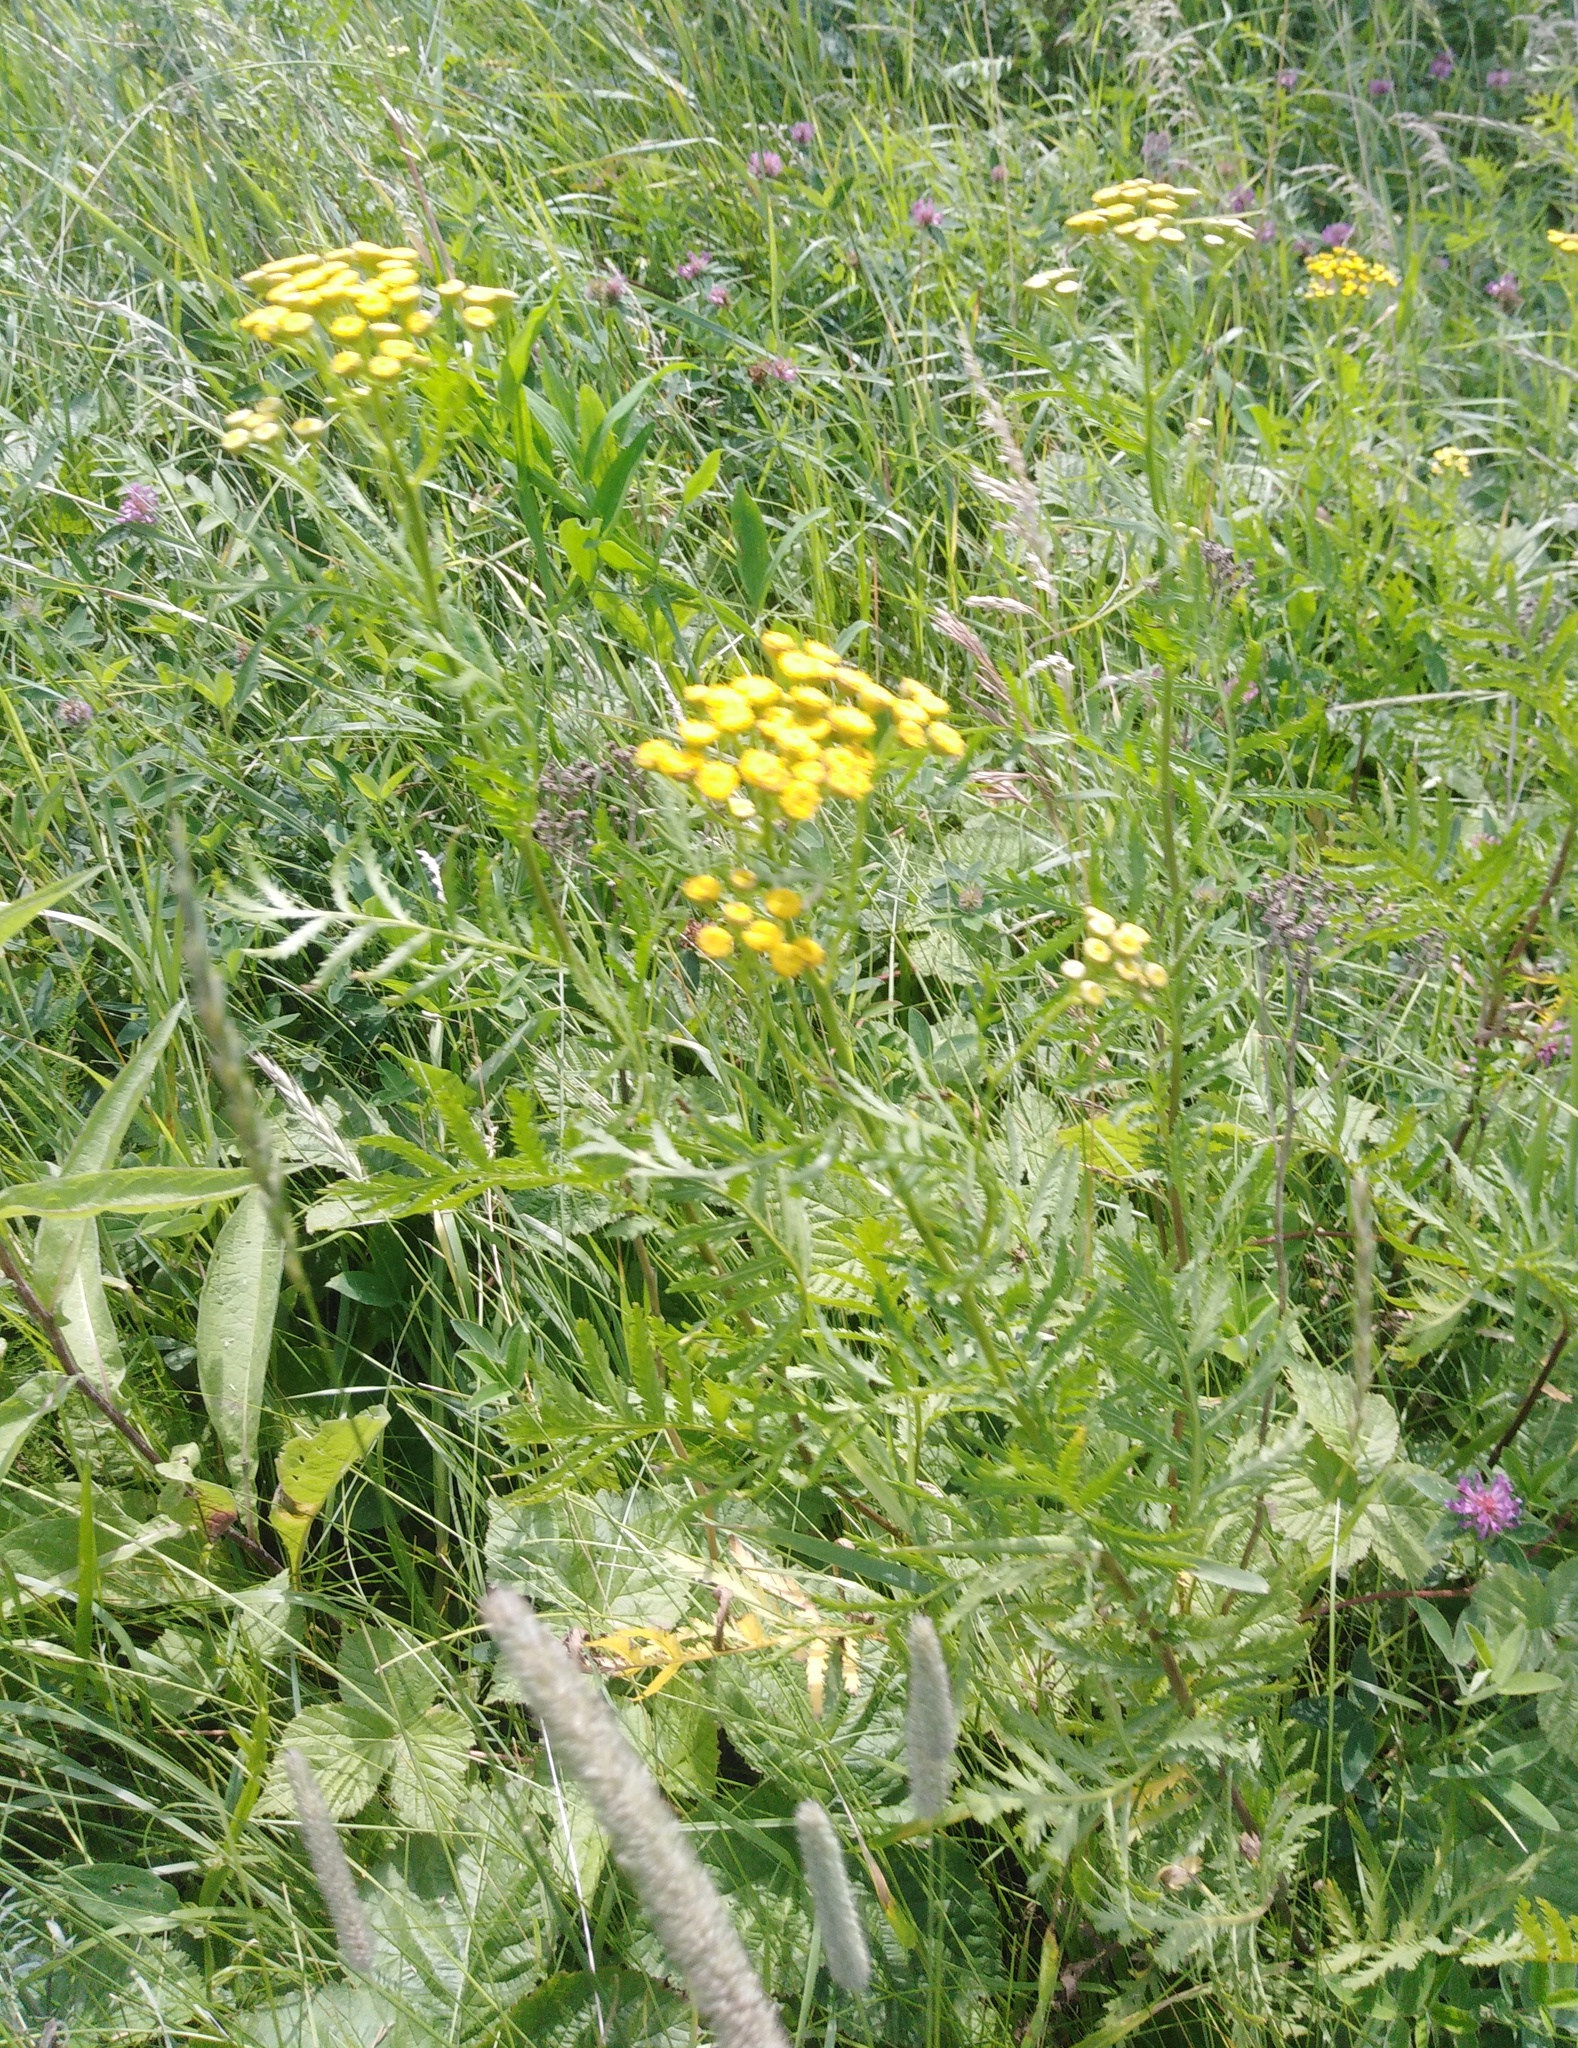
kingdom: Plantae
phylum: Tracheophyta
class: Magnoliopsida
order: Asterales
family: Asteraceae
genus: Tanacetum
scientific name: Tanacetum vulgare
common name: Common tansy
